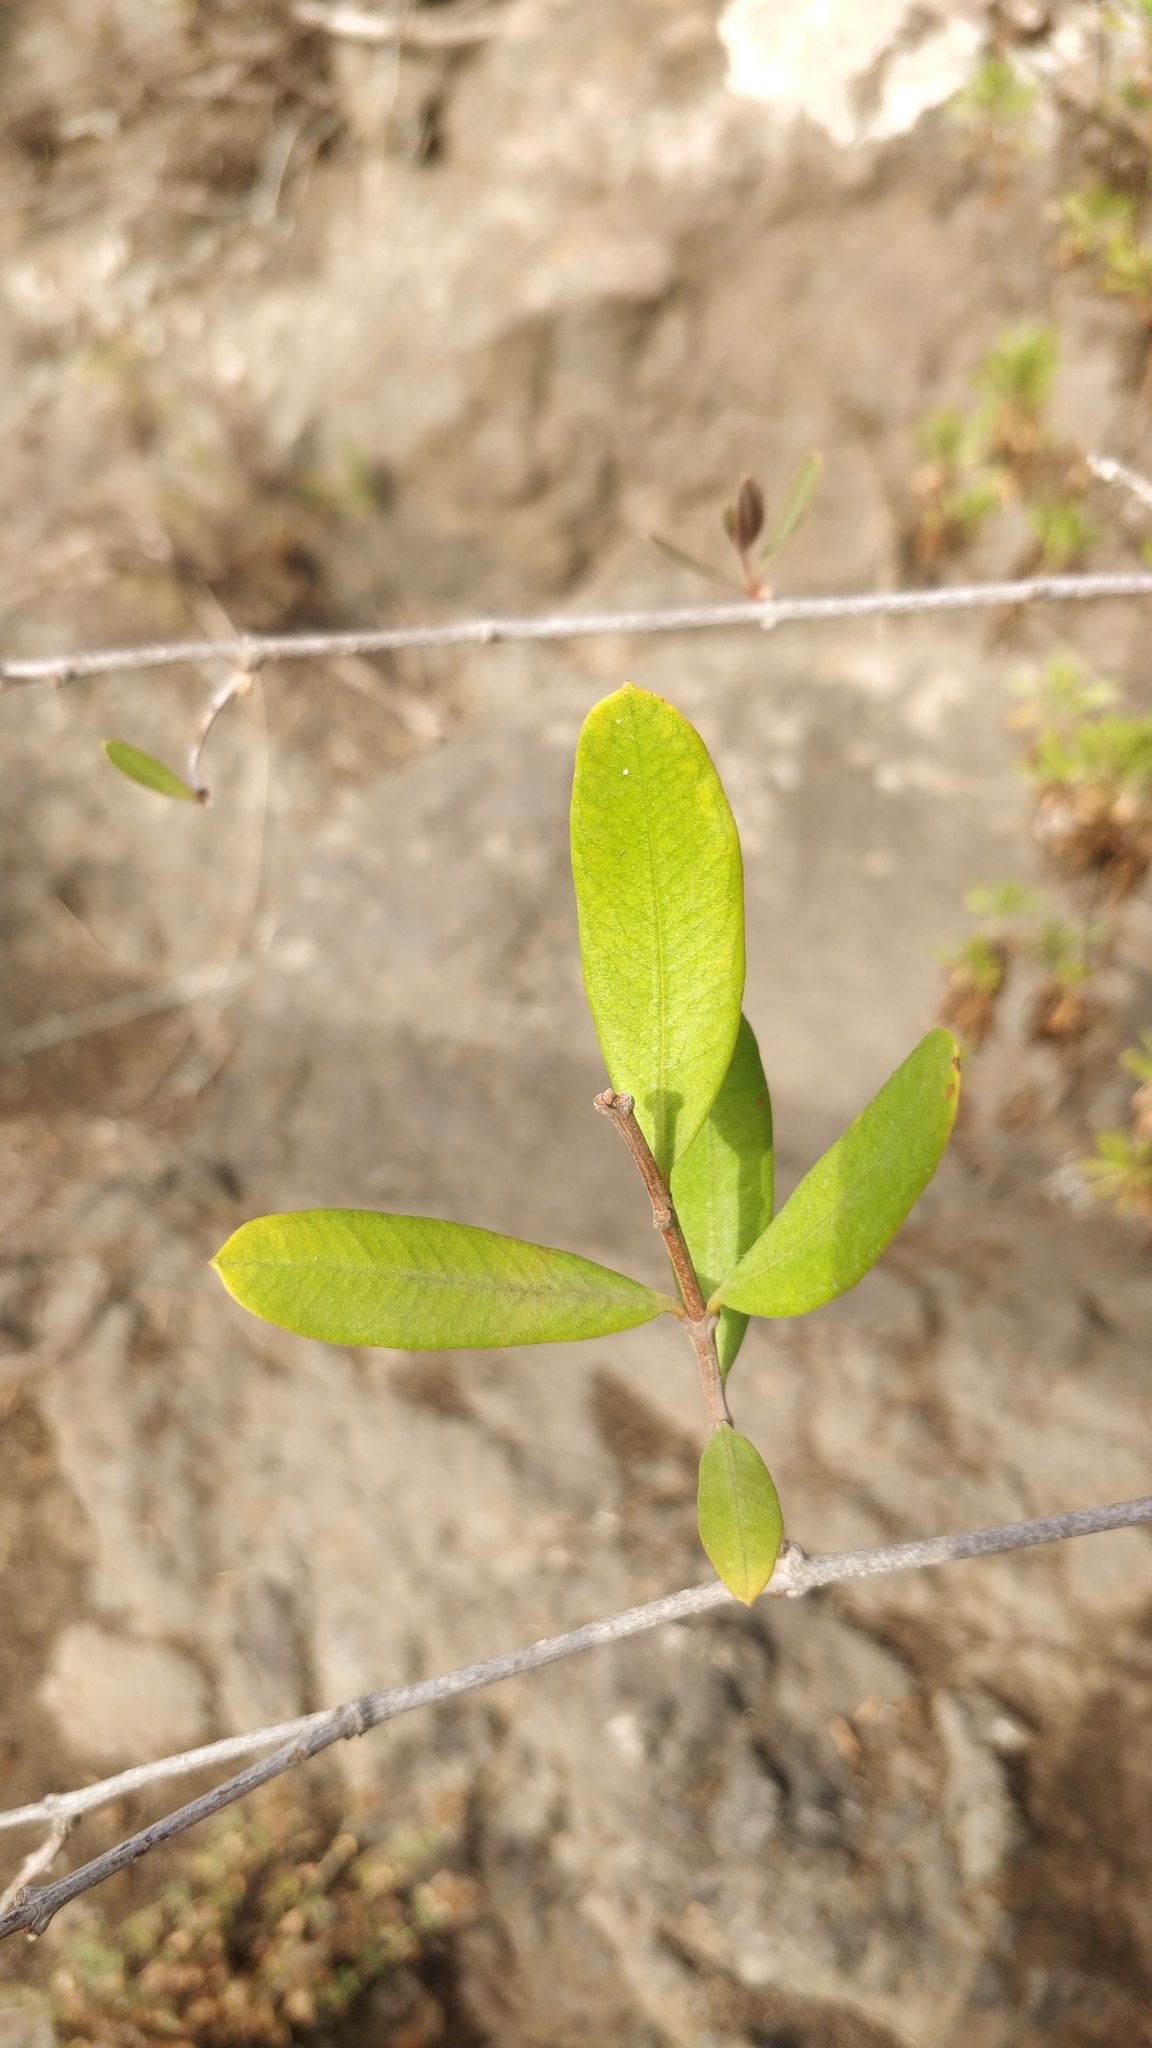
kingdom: Plantae
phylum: Tracheophyta
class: Magnoliopsida
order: Gentianales
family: Apocynaceae
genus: Periploca
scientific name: Periploca laevigata
